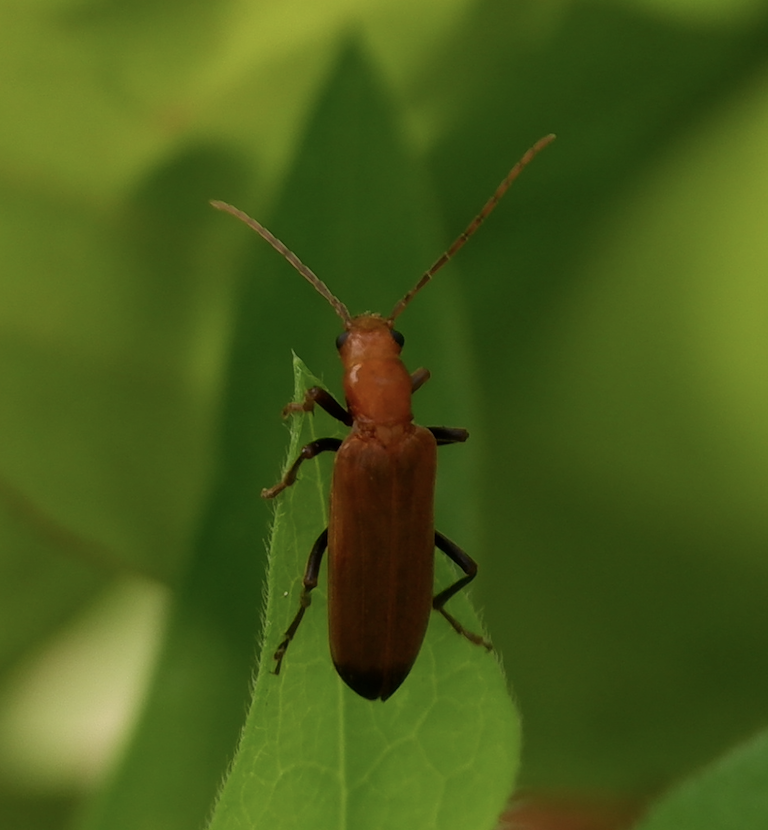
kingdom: Animalia
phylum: Arthropoda
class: Insecta
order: Coleoptera
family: Oedemeridae
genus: Nacerdes
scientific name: Nacerdes melanura
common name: Wharf borer
